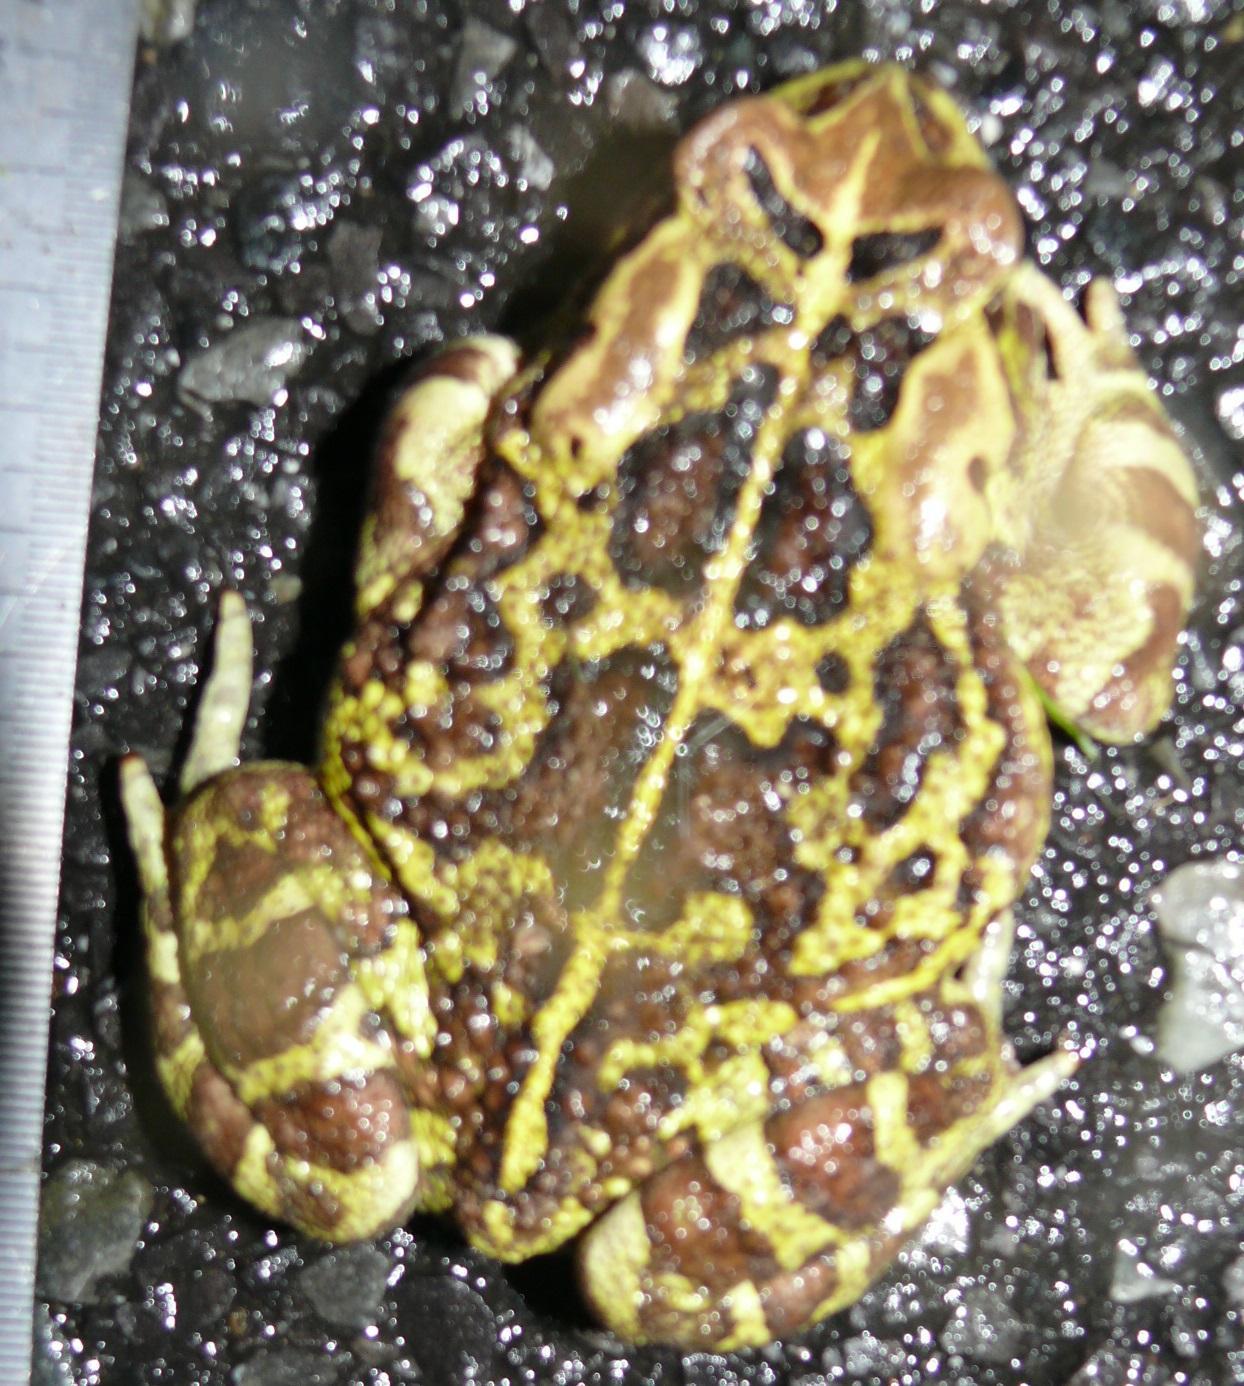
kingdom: Animalia
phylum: Chordata
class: Amphibia
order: Anura
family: Bufonidae
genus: Sclerophrys
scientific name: Sclerophrys pantherina
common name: Panther toad
